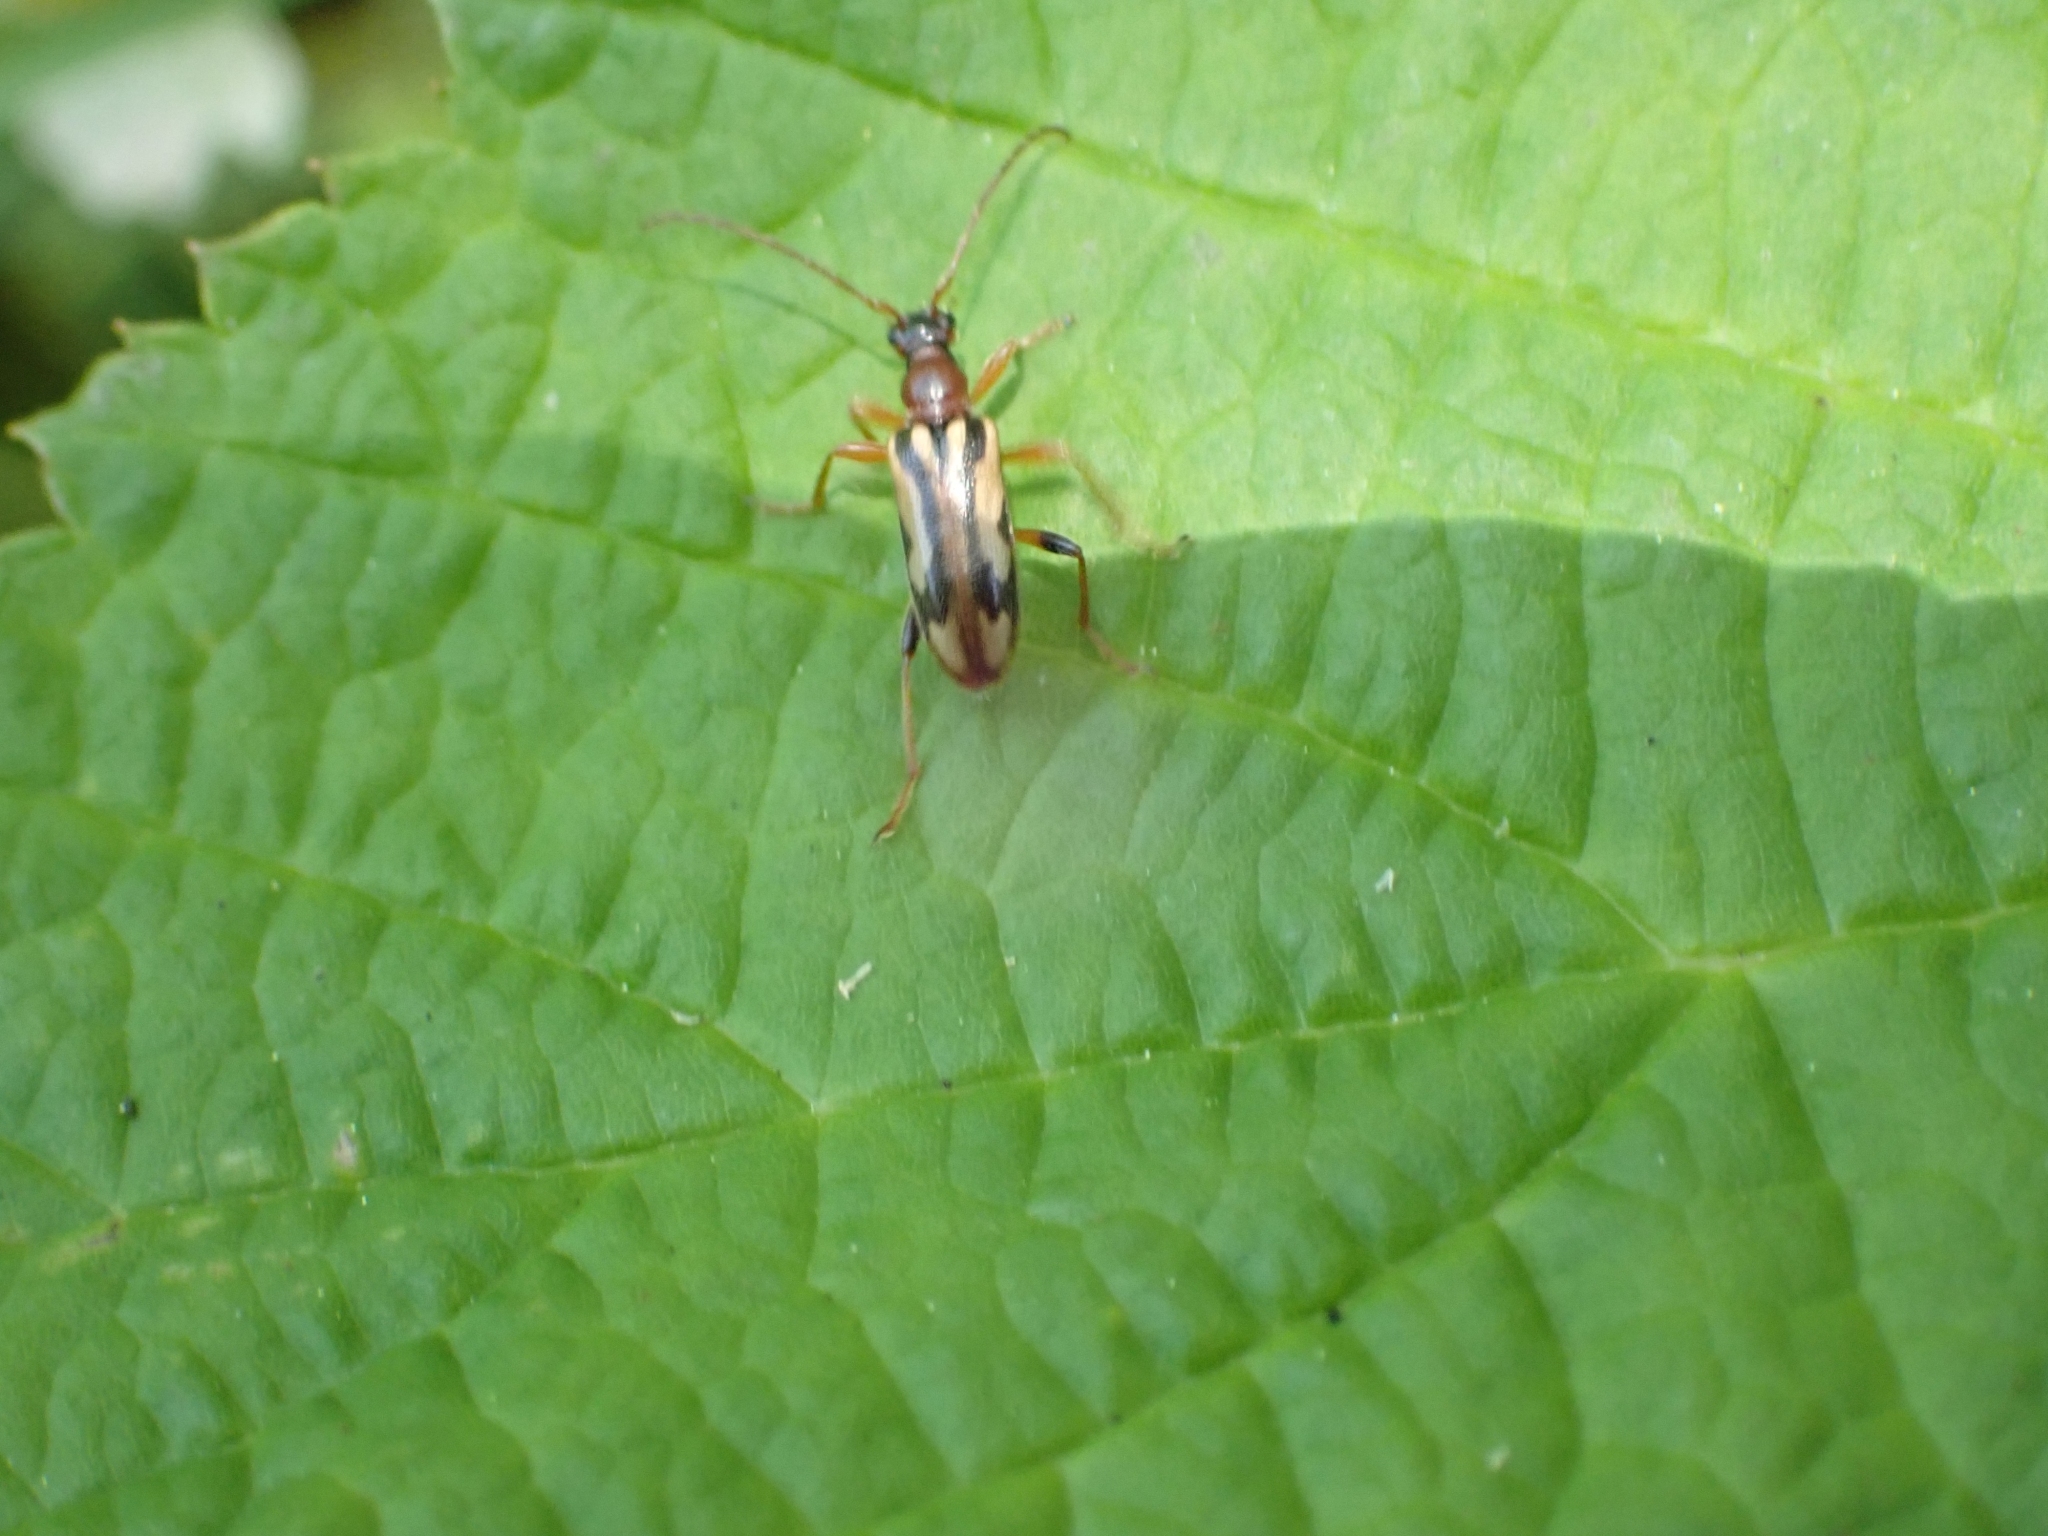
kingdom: Animalia
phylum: Arthropoda
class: Insecta
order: Coleoptera
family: Cerambycidae
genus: Pidonia
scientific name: Pidonia scripta
